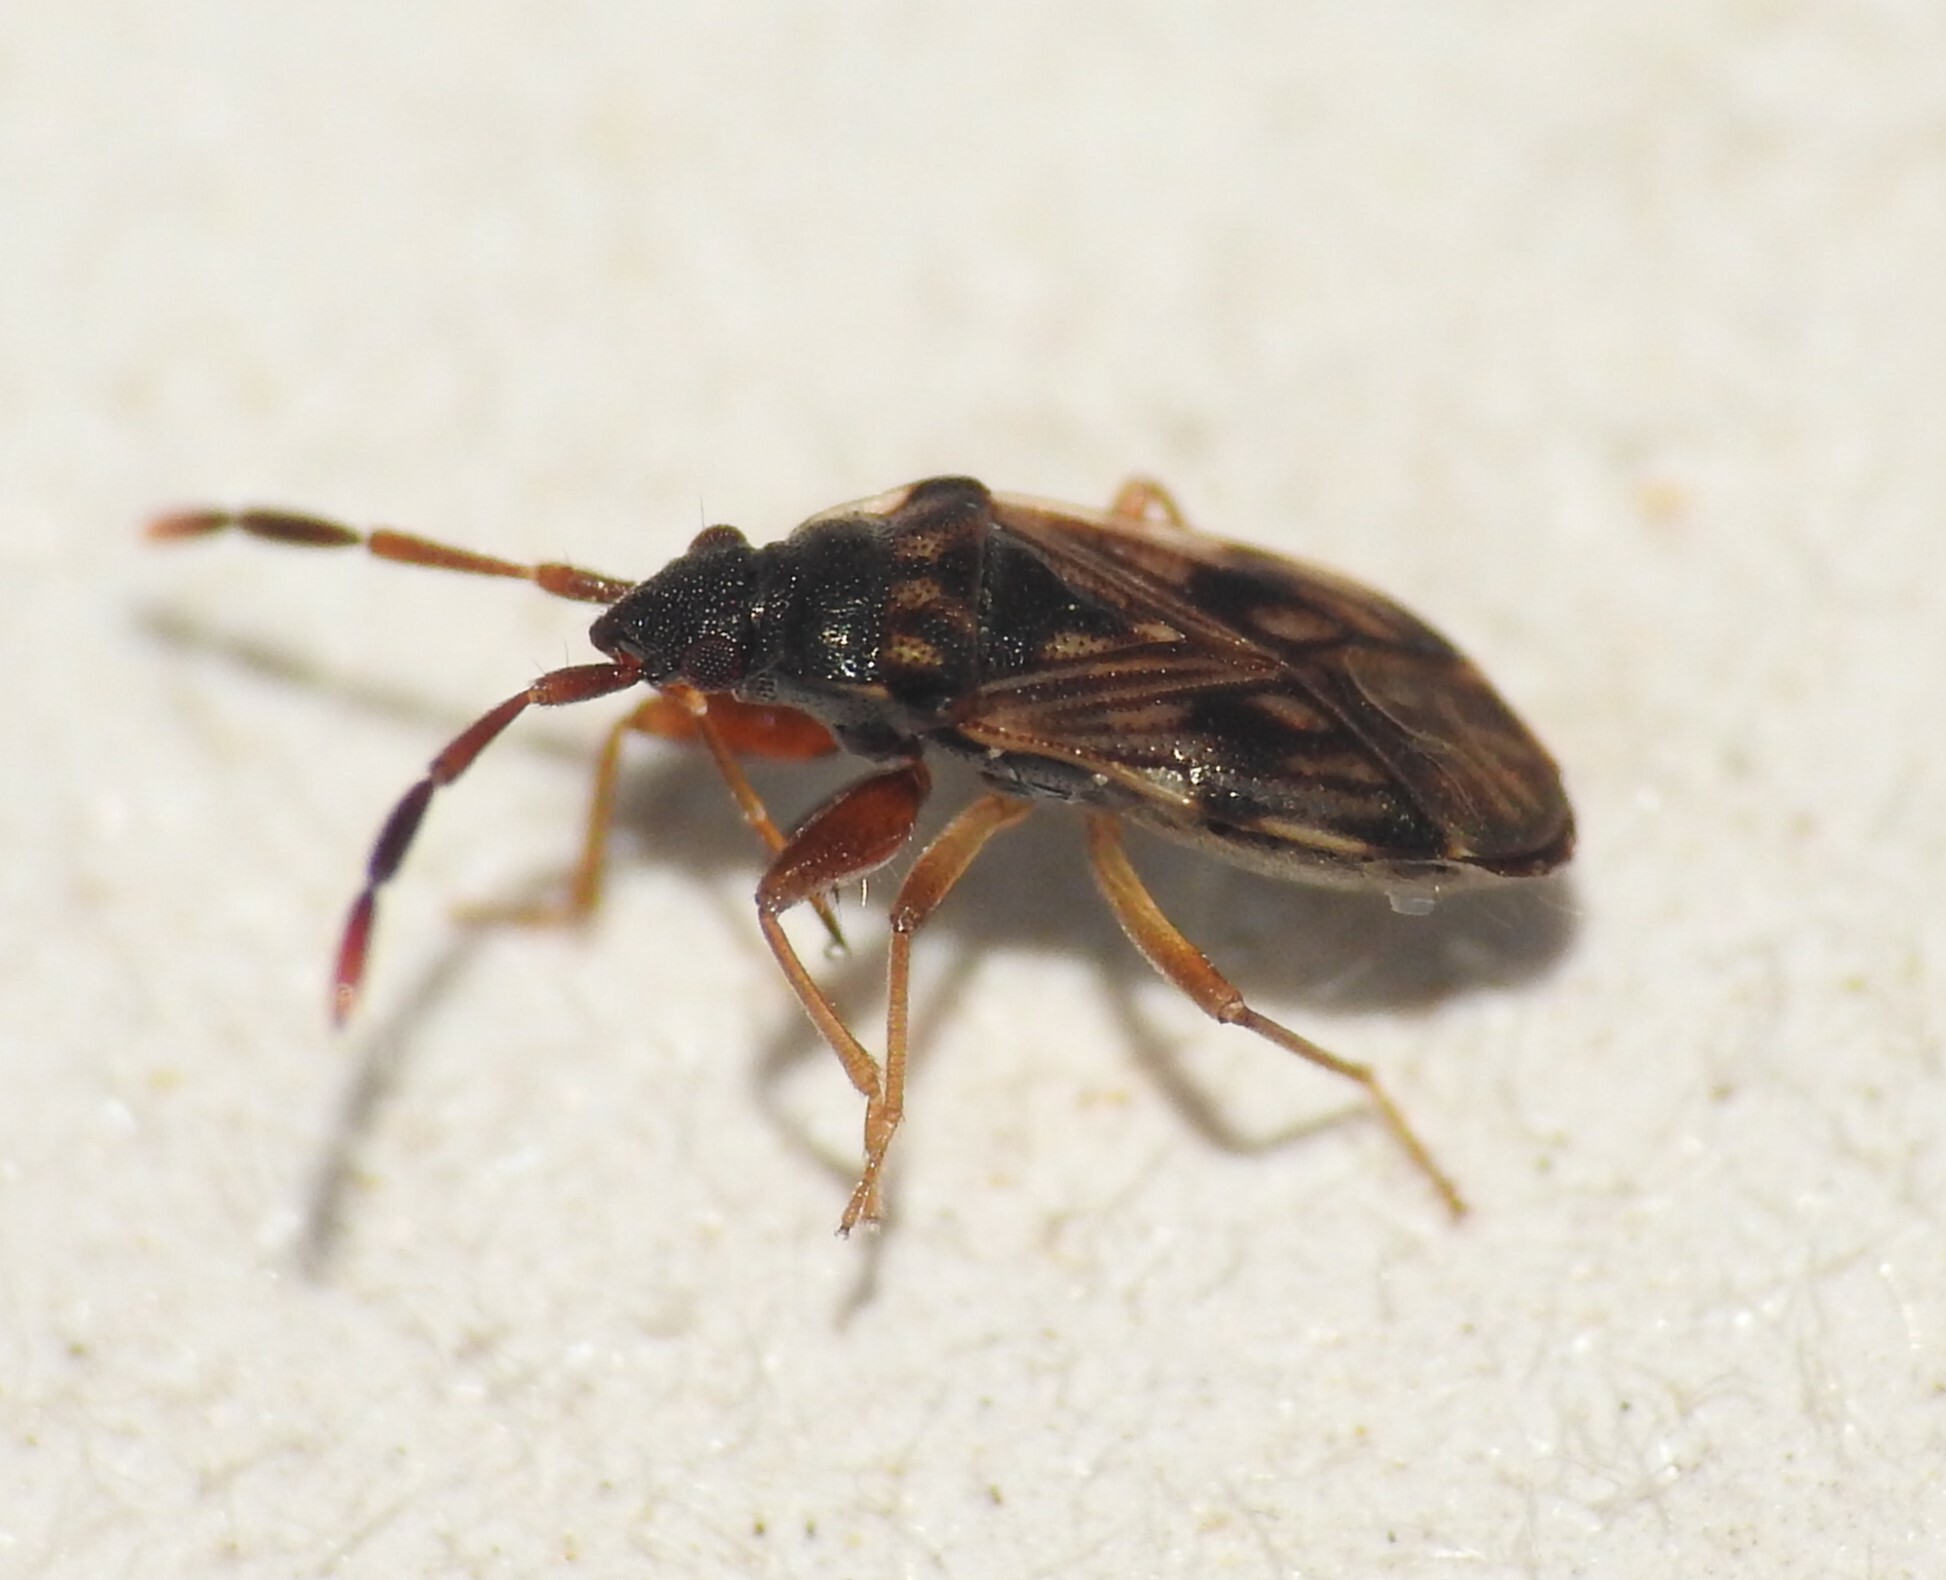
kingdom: Animalia
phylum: Arthropoda
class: Insecta
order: Hemiptera
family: Rhyparochromidae
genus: Brentiscerus
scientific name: Brentiscerus putoni
